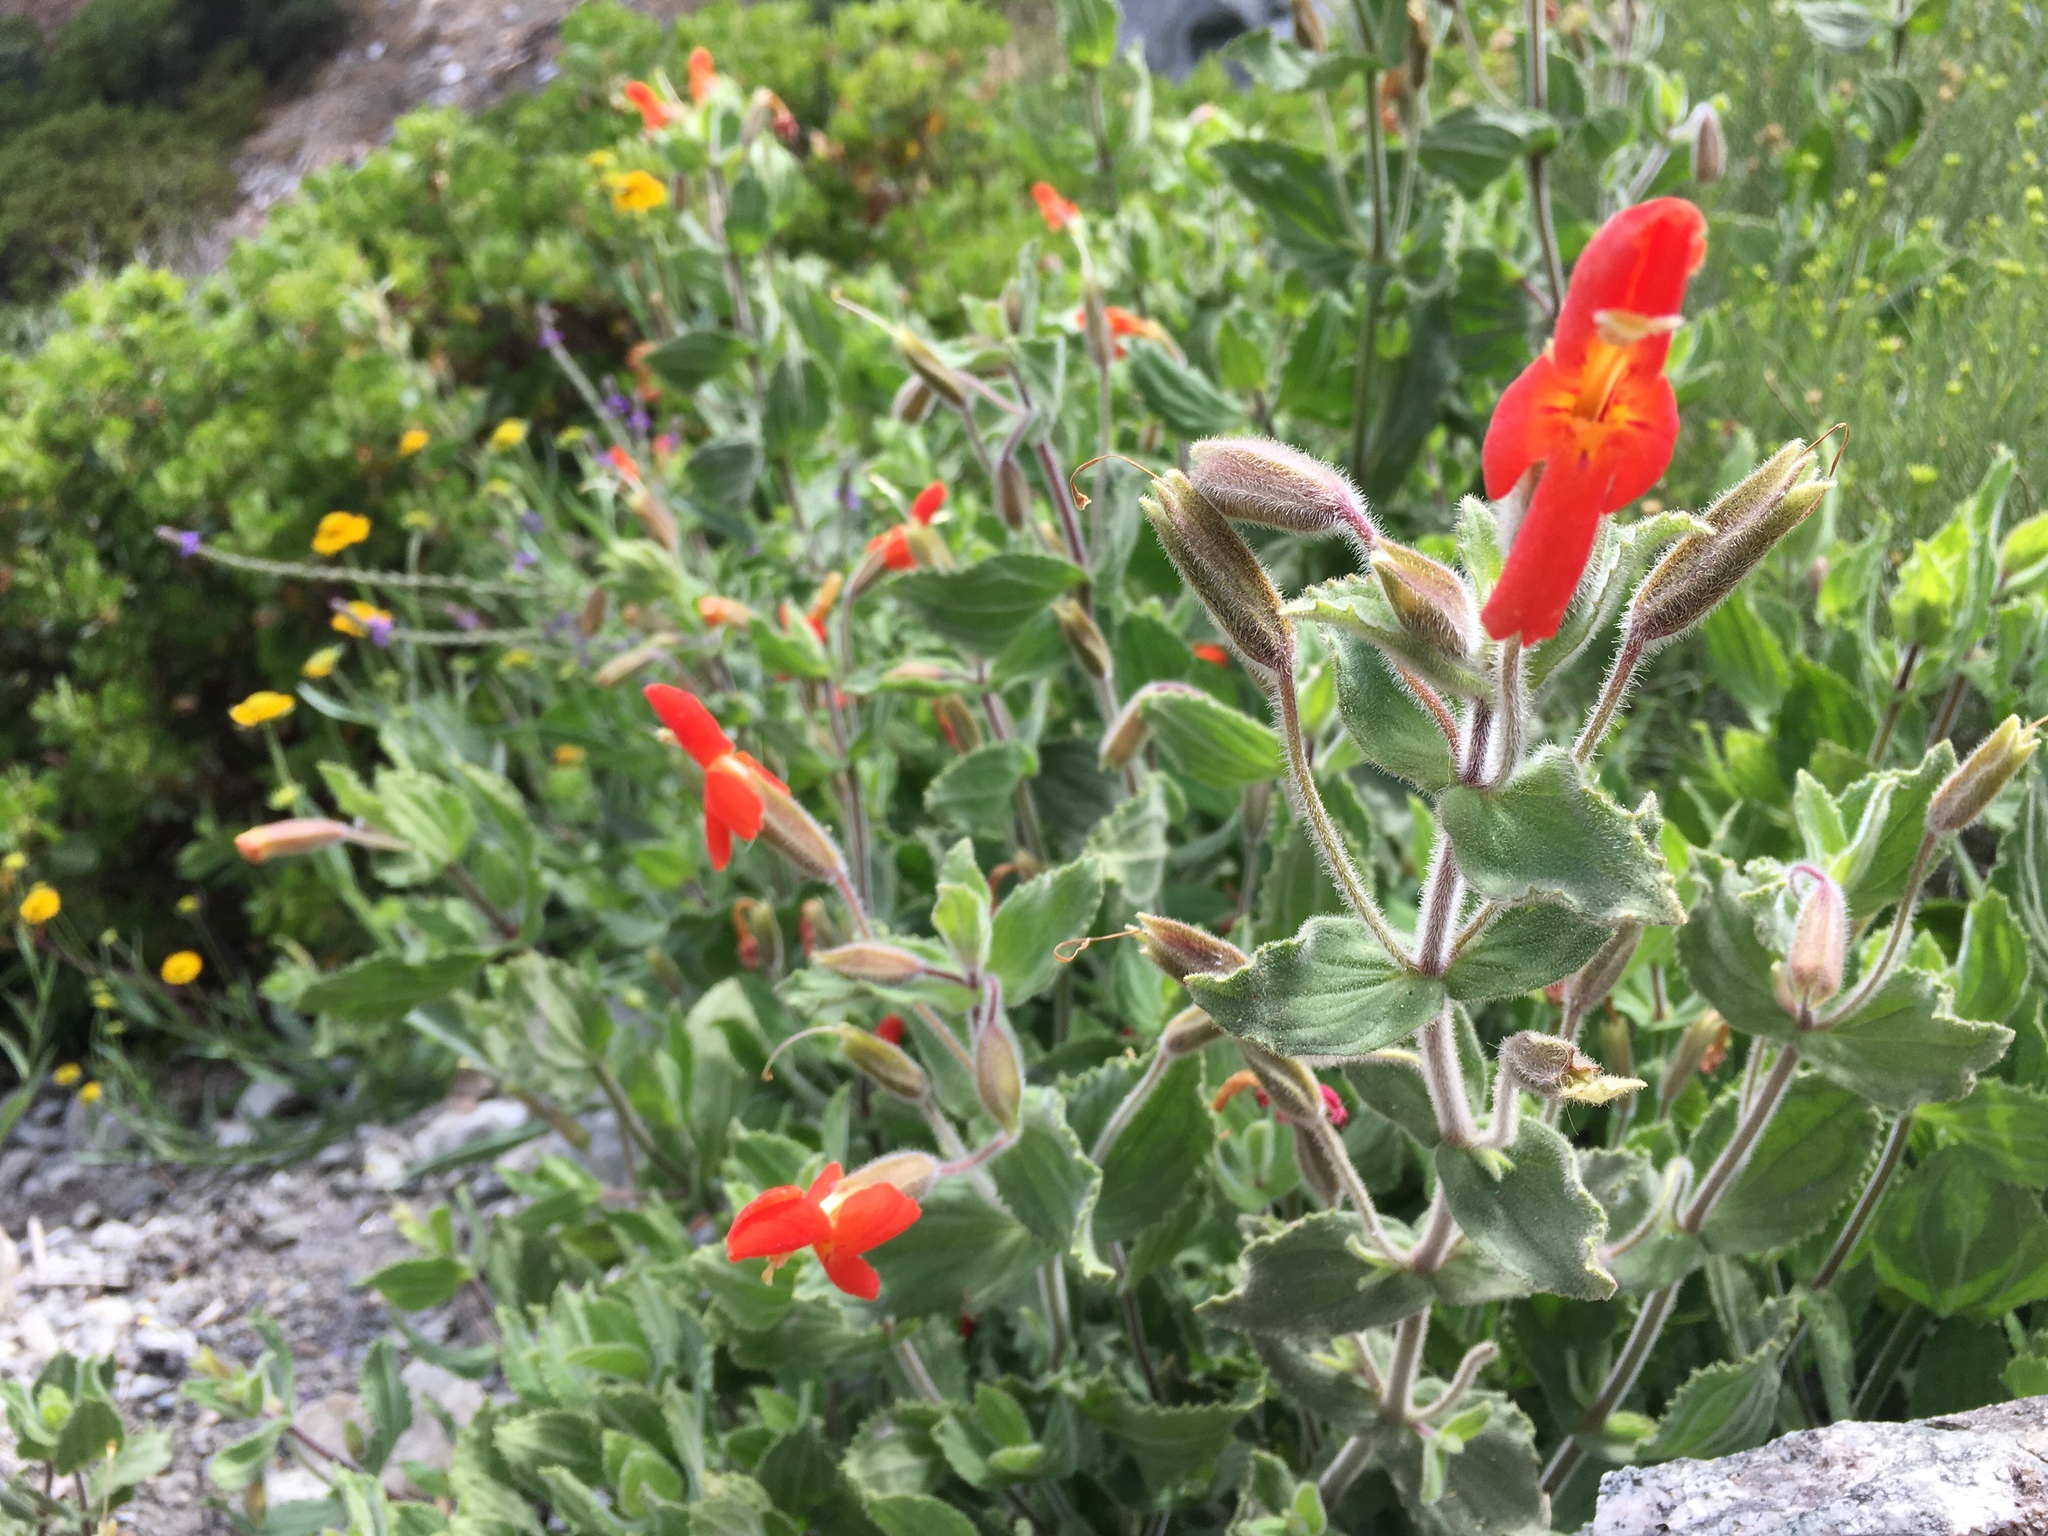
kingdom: Plantae
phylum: Tracheophyta
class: Magnoliopsida
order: Lamiales
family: Phrymaceae
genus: Erythranthe
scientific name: Erythranthe cardinalis
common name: Scarlet monkey-flower
